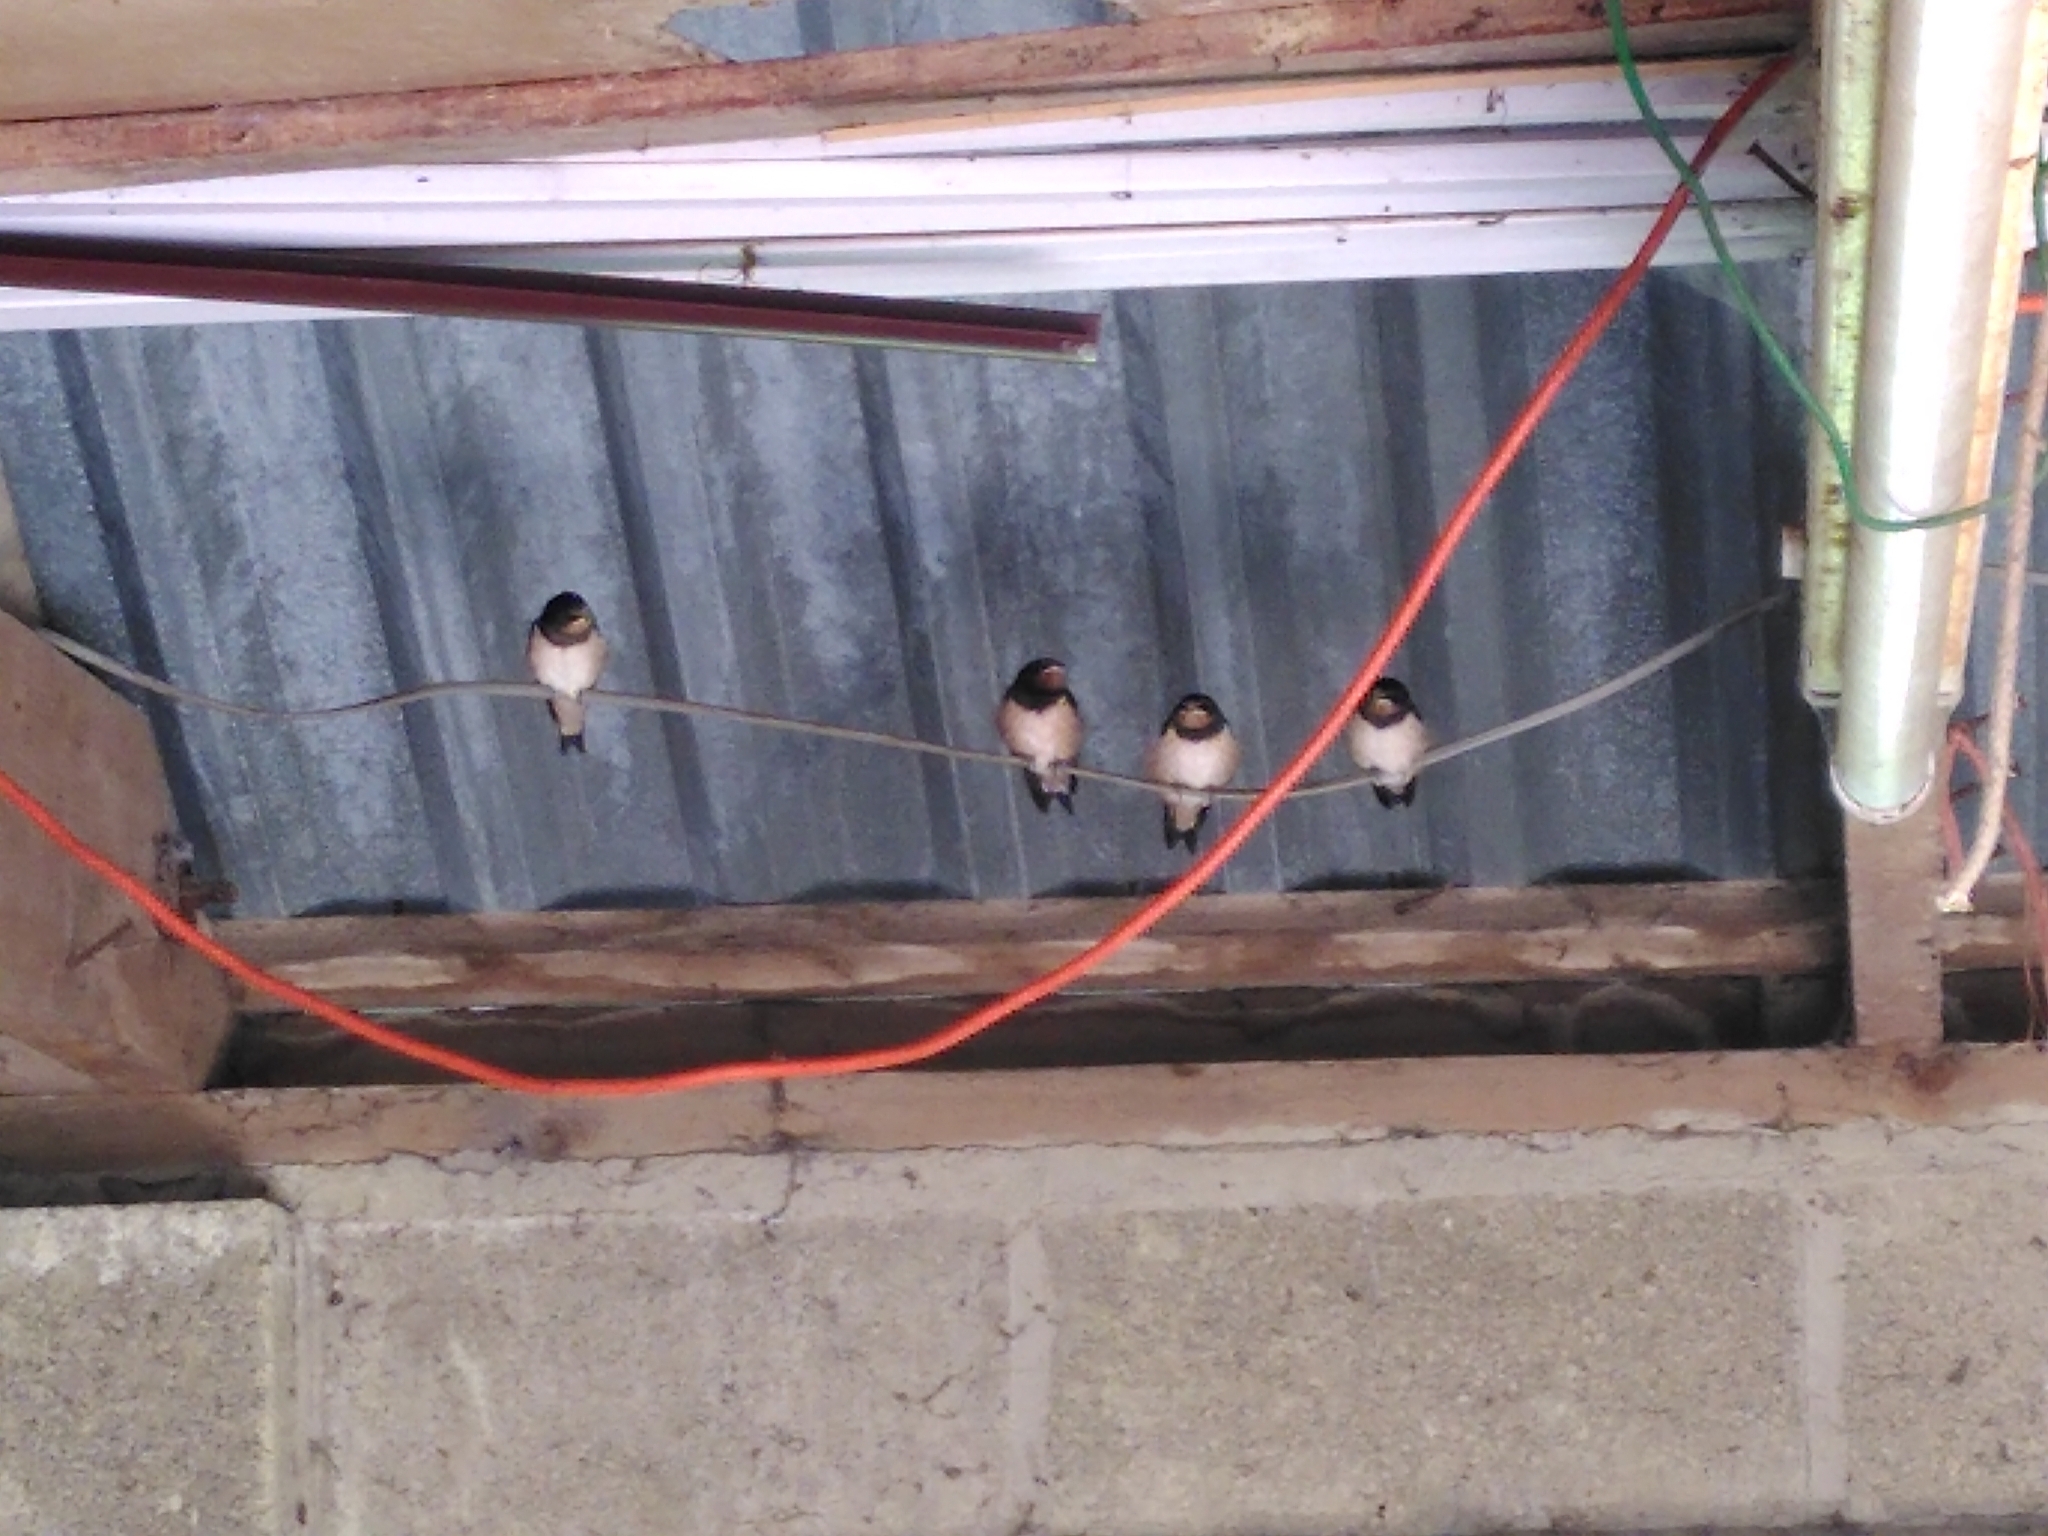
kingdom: Animalia
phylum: Chordata
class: Aves
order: Passeriformes
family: Hirundinidae
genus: Hirundo
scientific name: Hirundo rustica
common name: Barn swallow
